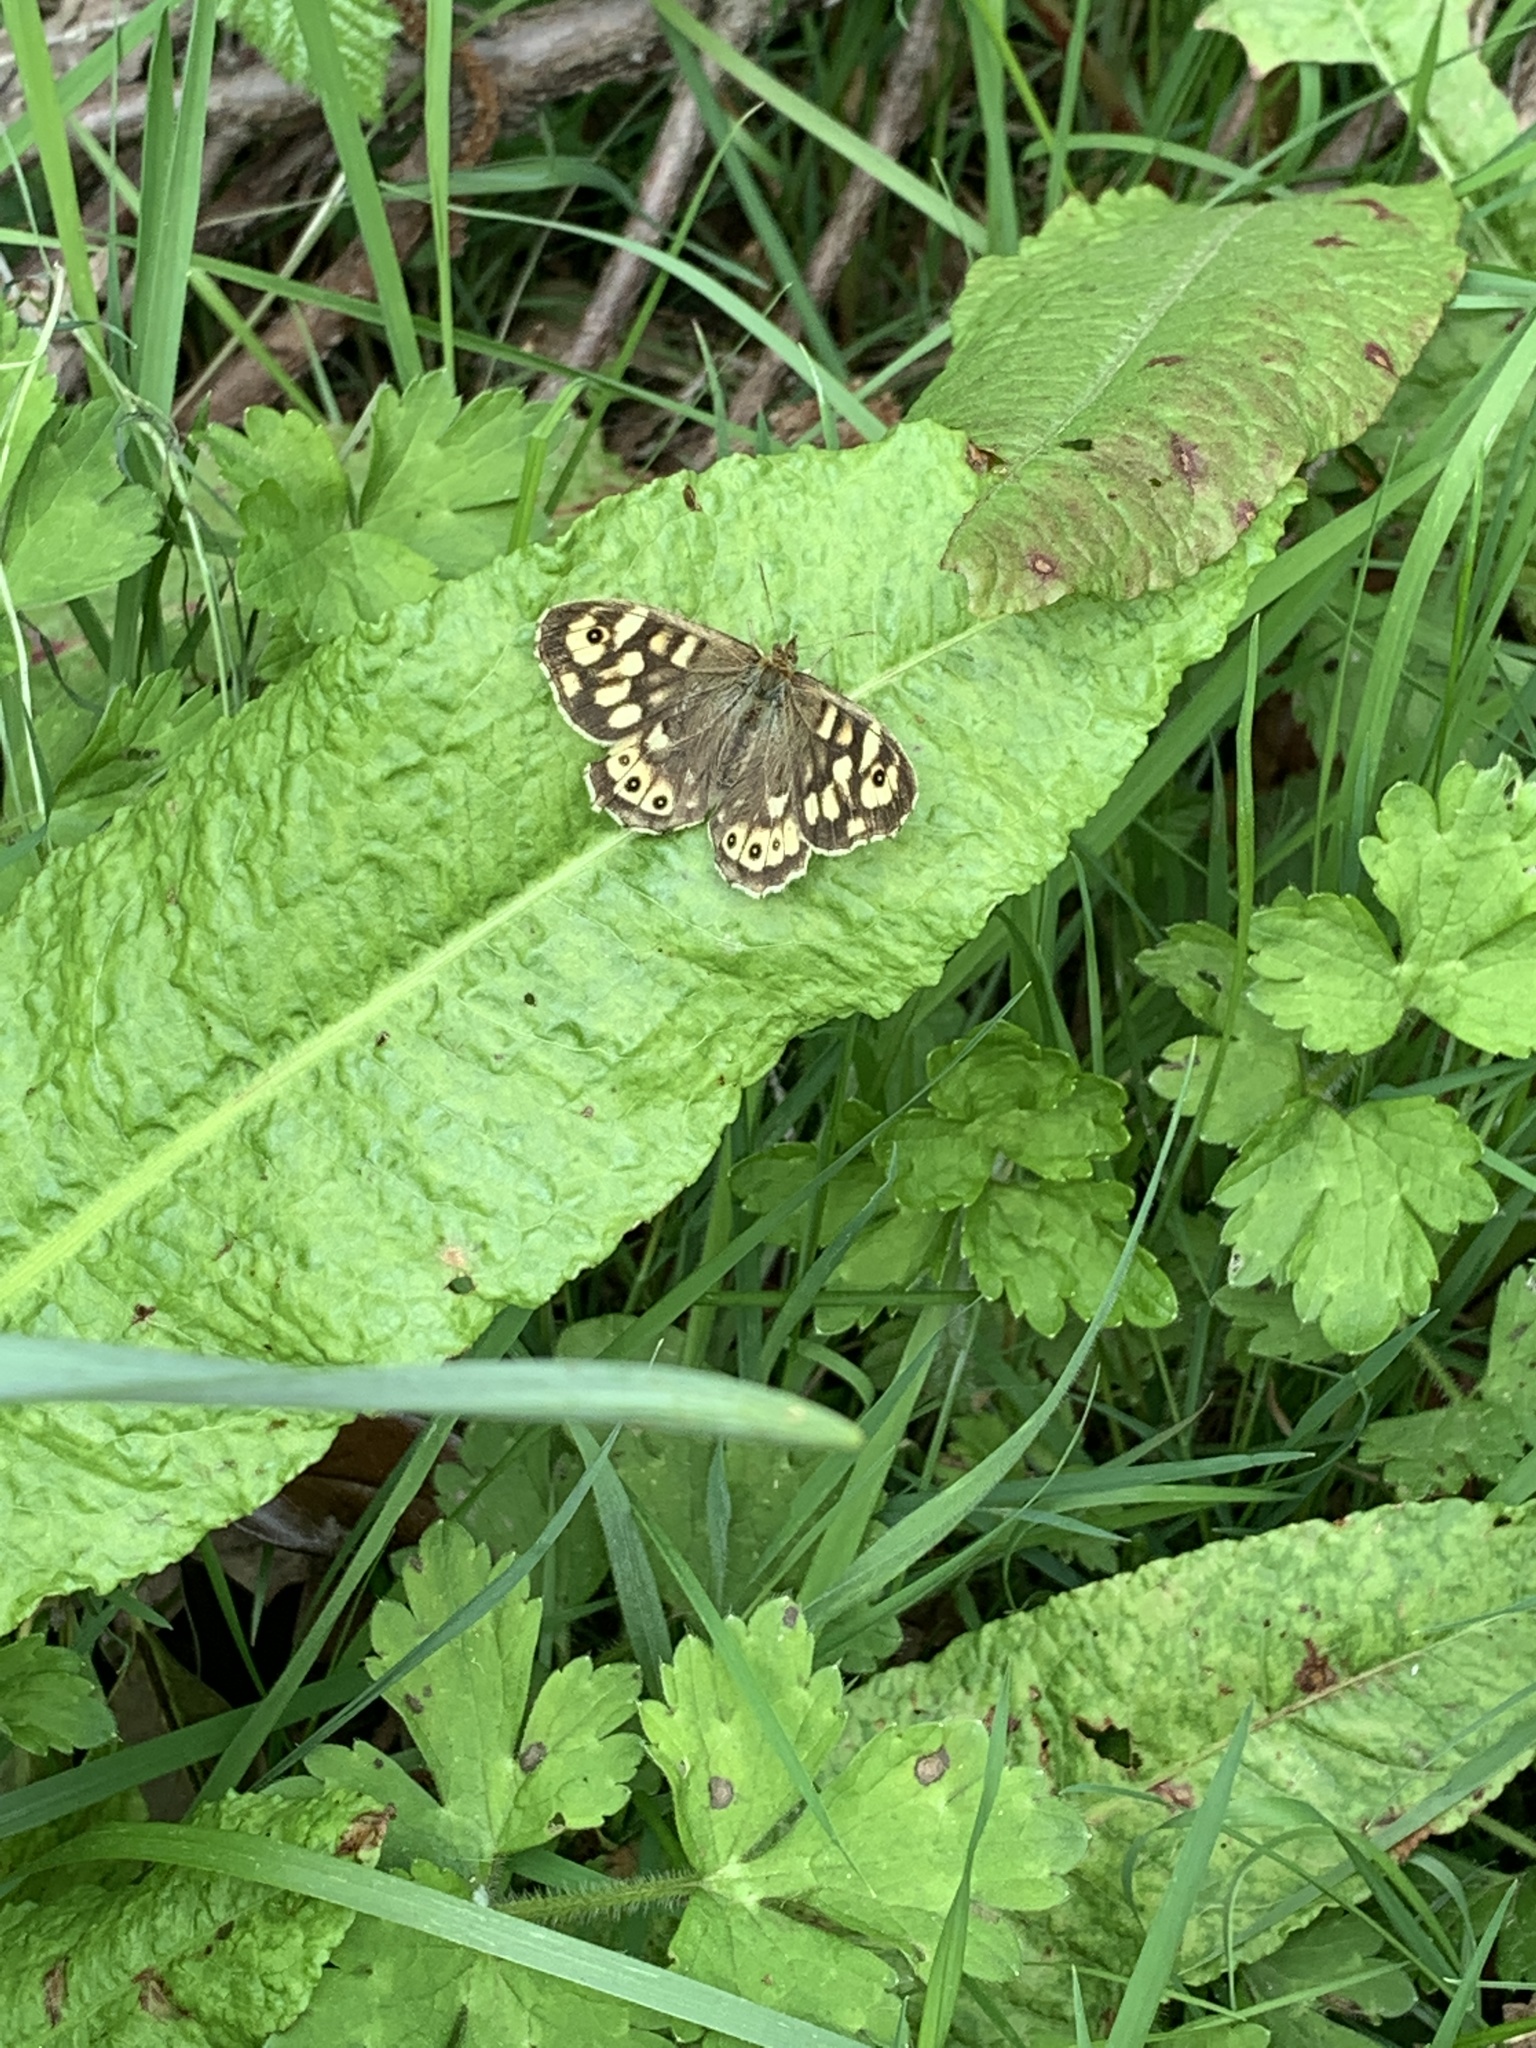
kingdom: Animalia
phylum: Arthropoda
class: Insecta
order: Lepidoptera
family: Nymphalidae
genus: Pararge
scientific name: Pararge aegeria
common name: Speckled wood
